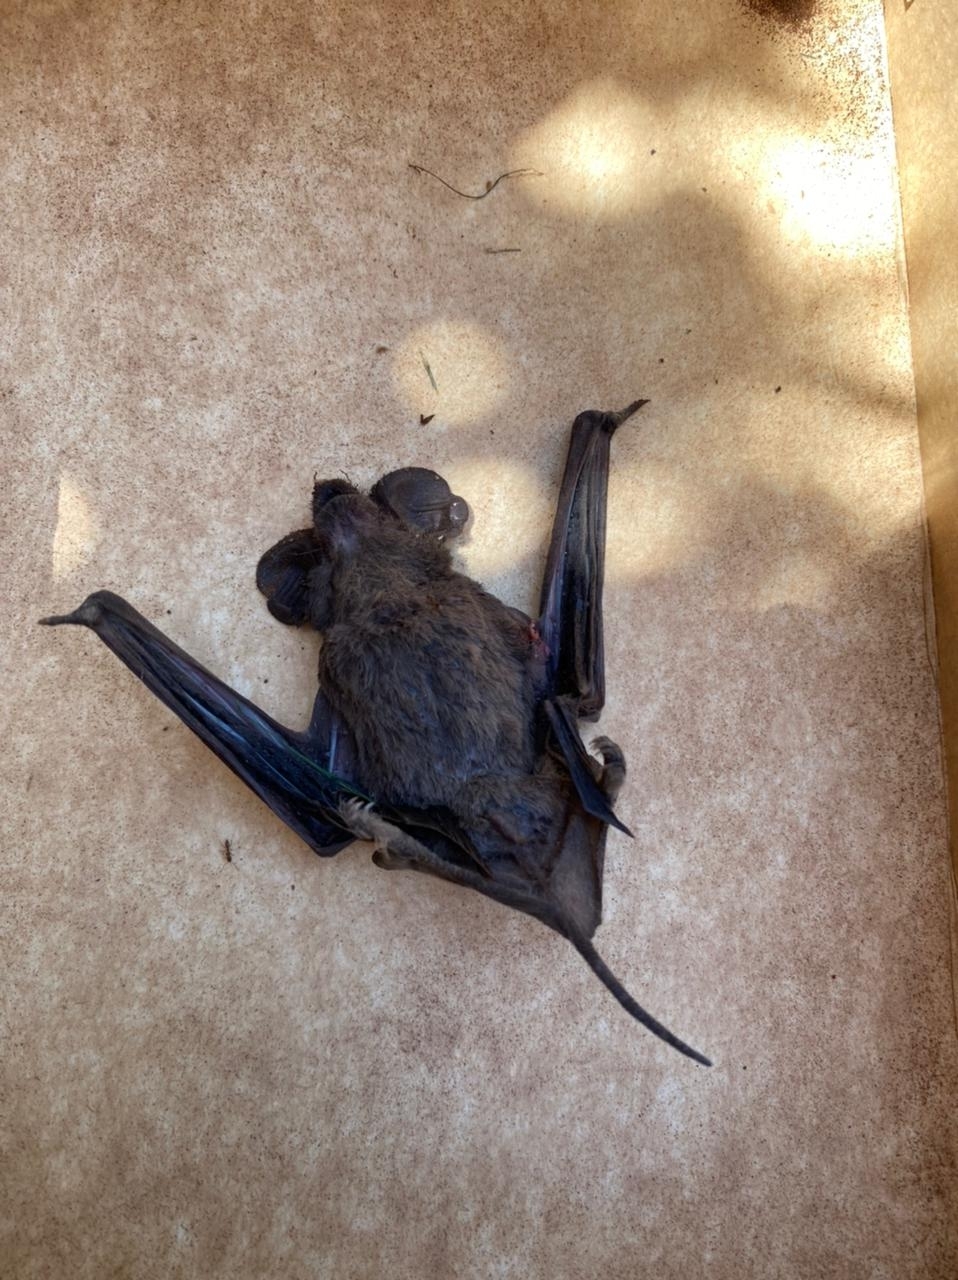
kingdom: Animalia
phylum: Chordata
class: Mammalia
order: Chiroptera
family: Molossidae
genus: Tadarida
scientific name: Tadarida brasiliensis
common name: Mexican free-tailed bat
